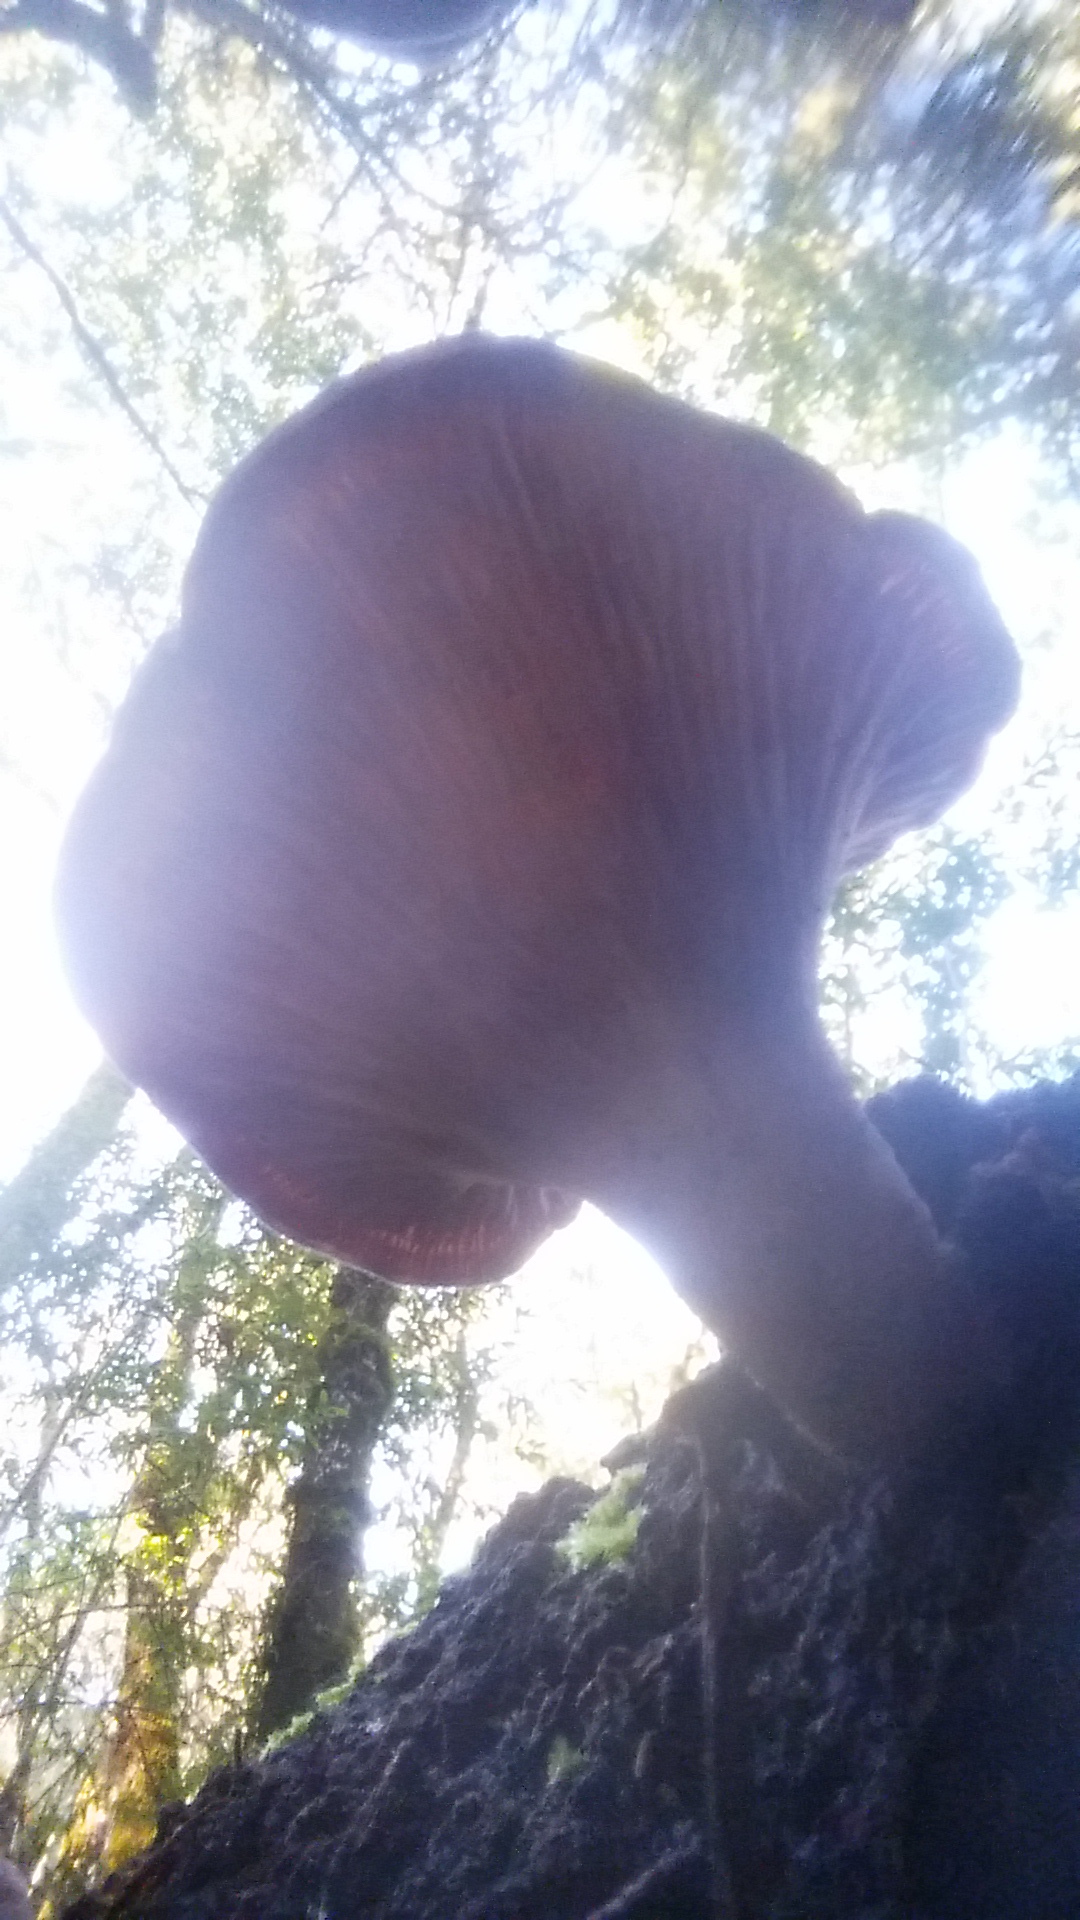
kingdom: Fungi
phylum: Basidiomycota
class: Agaricomycetes
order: Polyporales
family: Panaceae
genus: Panus
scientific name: Panus conchatus
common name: Lilac oysterling
